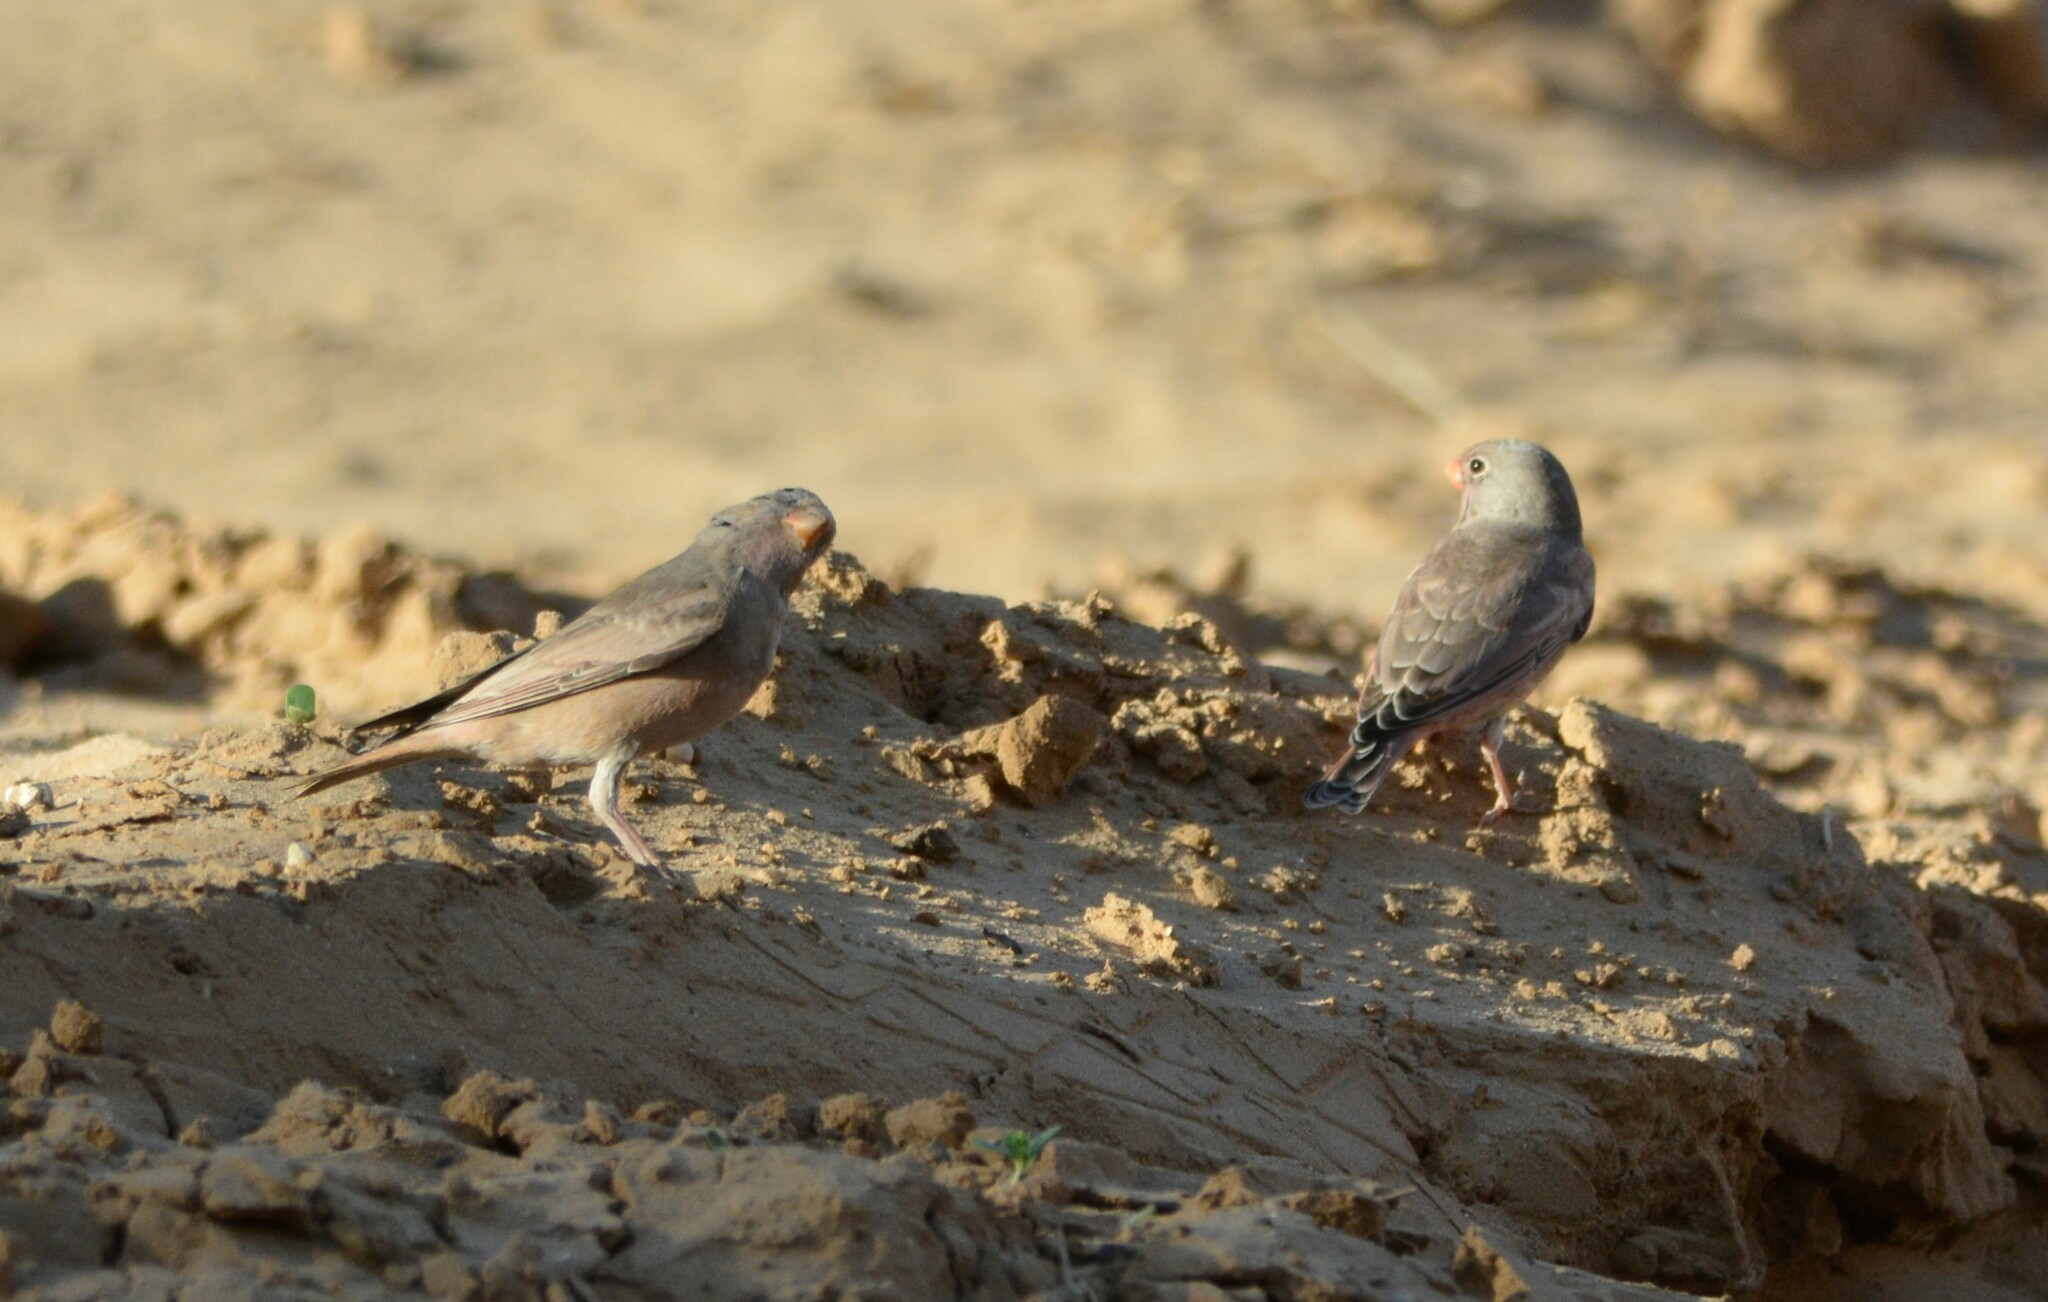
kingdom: Animalia
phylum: Chordata
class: Aves
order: Passeriformes
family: Fringillidae
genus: Bucanetes
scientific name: Bucanetes githagineus
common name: Trumpeter finch
